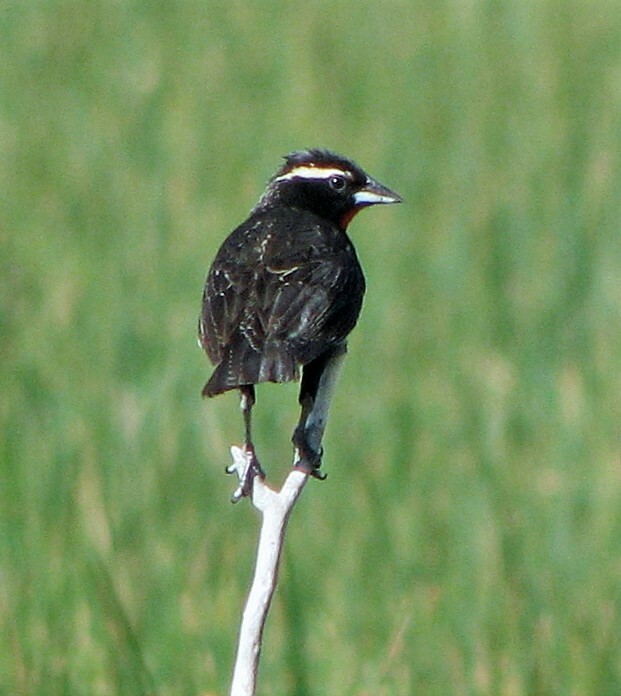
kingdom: Animalia
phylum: Chordata
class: Aves
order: Passeriformes
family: Icteridae
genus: Sturnella
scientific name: Sturnella superciliaris
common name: White-browed blackbird
